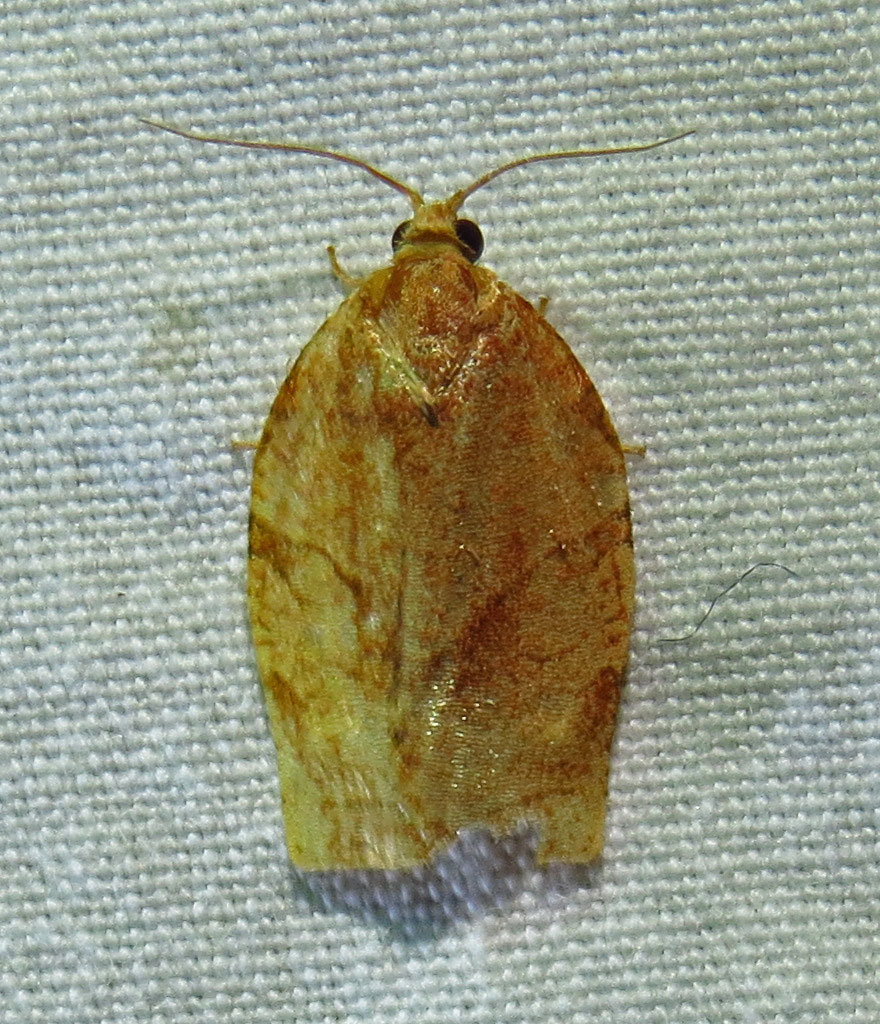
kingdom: Animalia
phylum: Arthropoda
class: Insecta
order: Lepidoptera
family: Tortricidae
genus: Choristoneura
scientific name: Choristoneura rosaceana
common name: Oblique-banded leafroller moth
